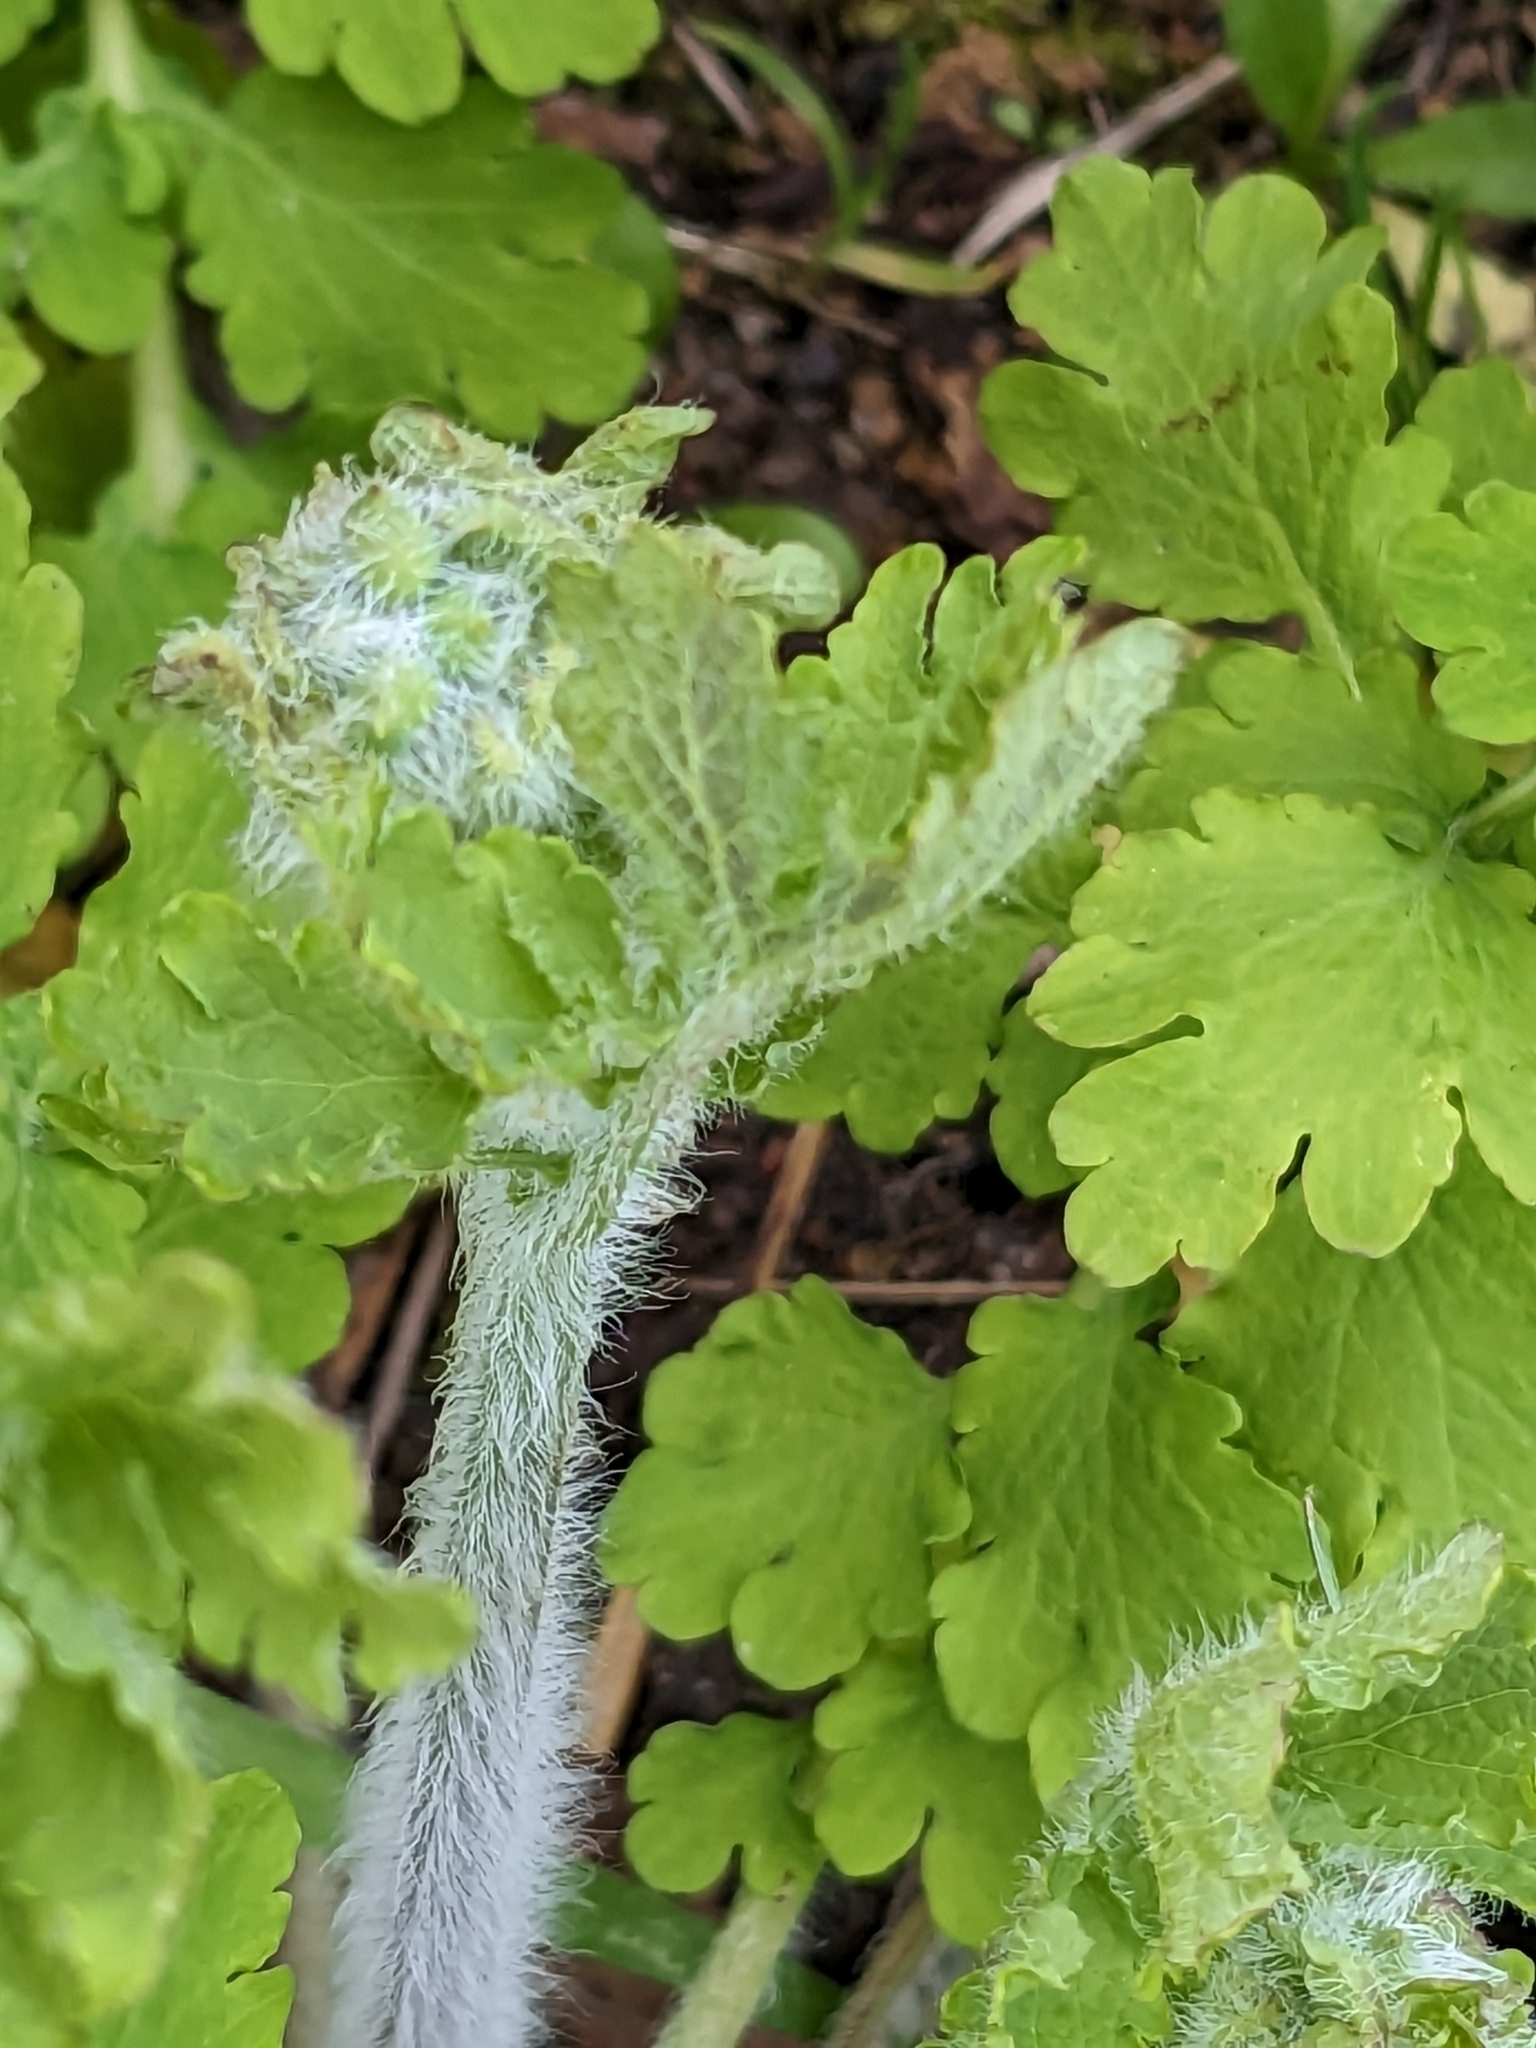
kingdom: Plantae
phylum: Tracheophyta
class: Magnoliopsida
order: Ranunculales
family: Papaveraceae
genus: Chelidonium
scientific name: Chelidonium majus
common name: Greater celandine
